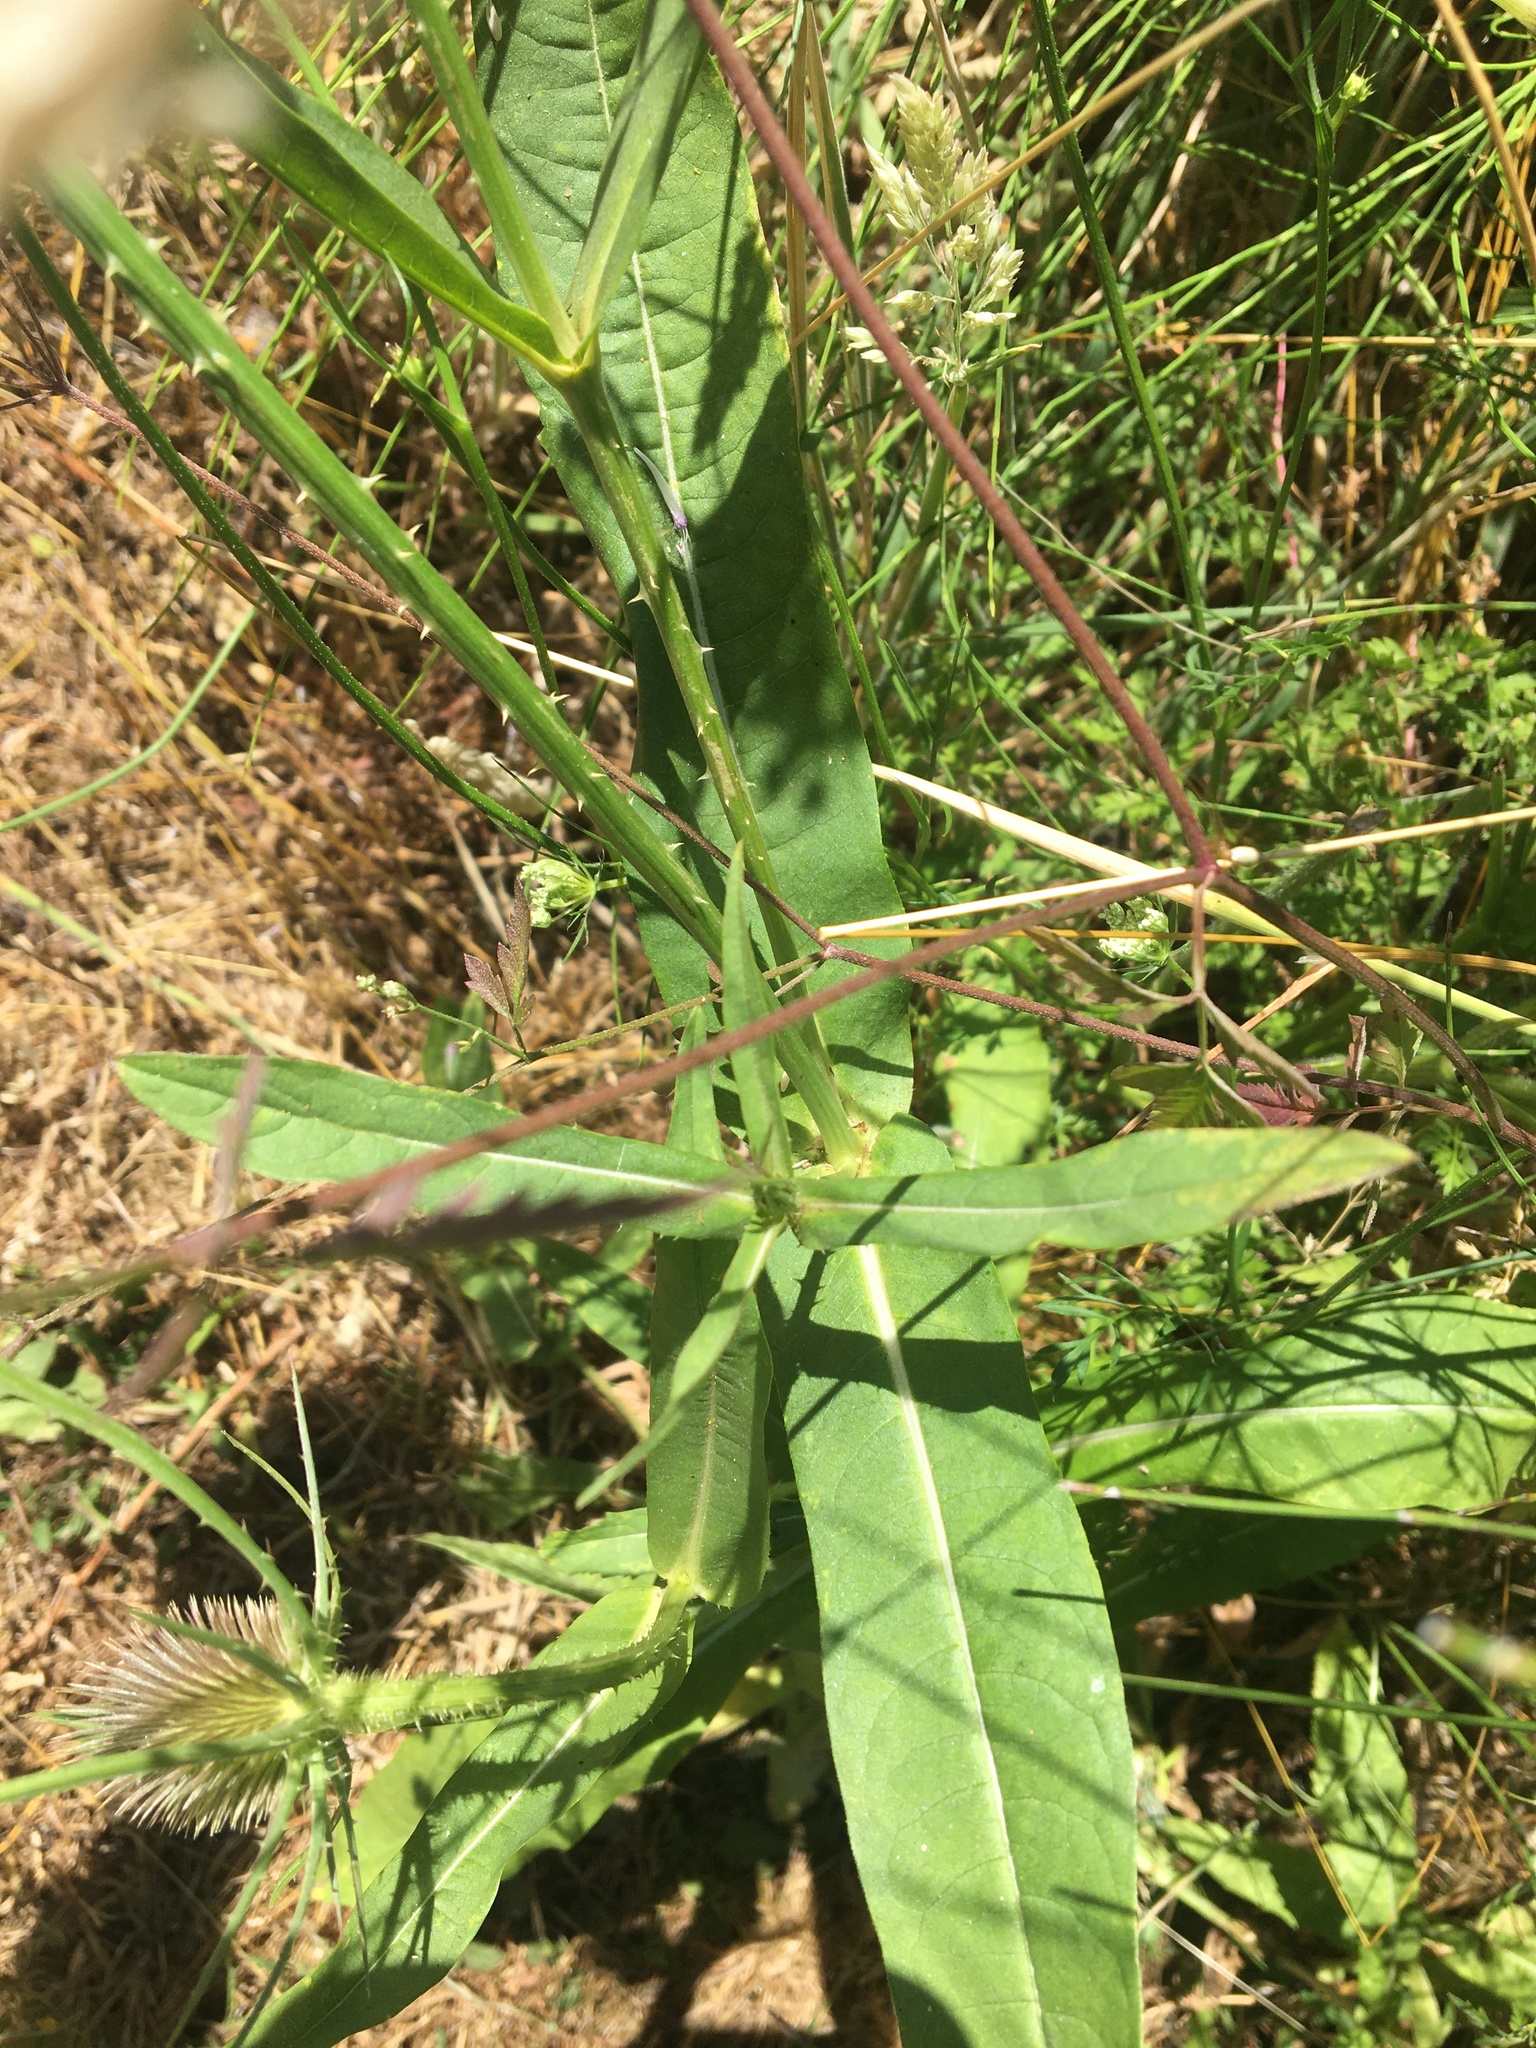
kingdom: Plantae
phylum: Tracheophyta
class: Magnoliopsida
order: Dipsacales
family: Caprifoliaceae
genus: Dipsacus
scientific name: Dipsacus fullonum
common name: Teasel
